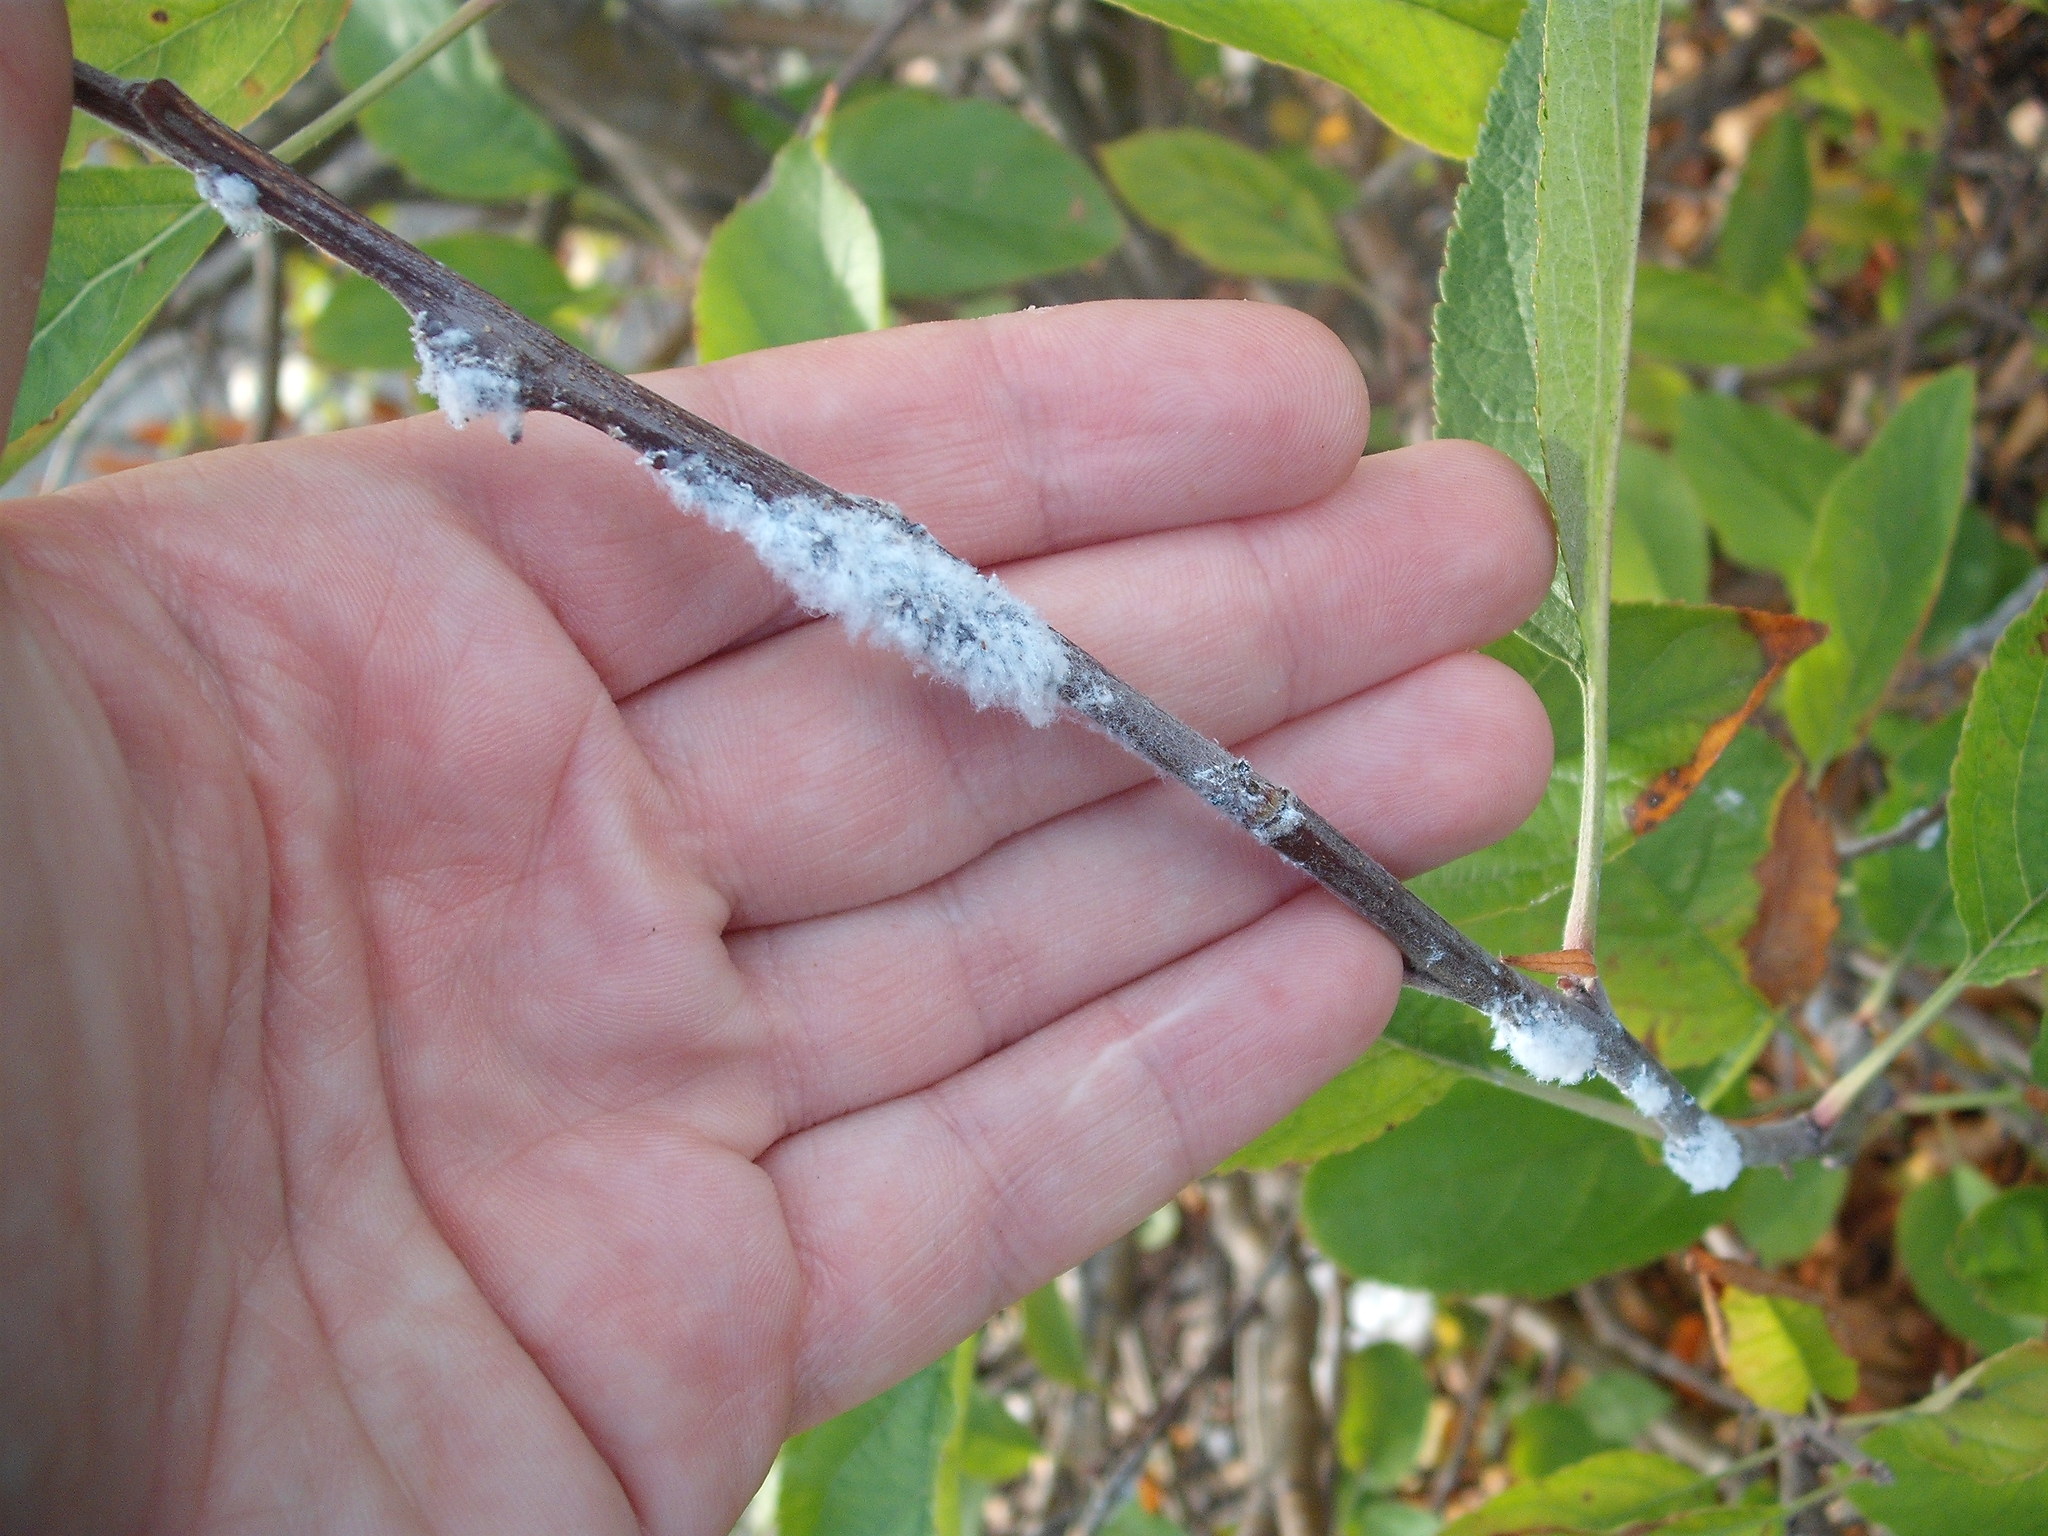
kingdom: Animalia
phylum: Arthropoda
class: Insecta
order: Hemiptera
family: Aphididae
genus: Eriosoma
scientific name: Eriosoma lanigerum
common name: Woolly apple aphid
